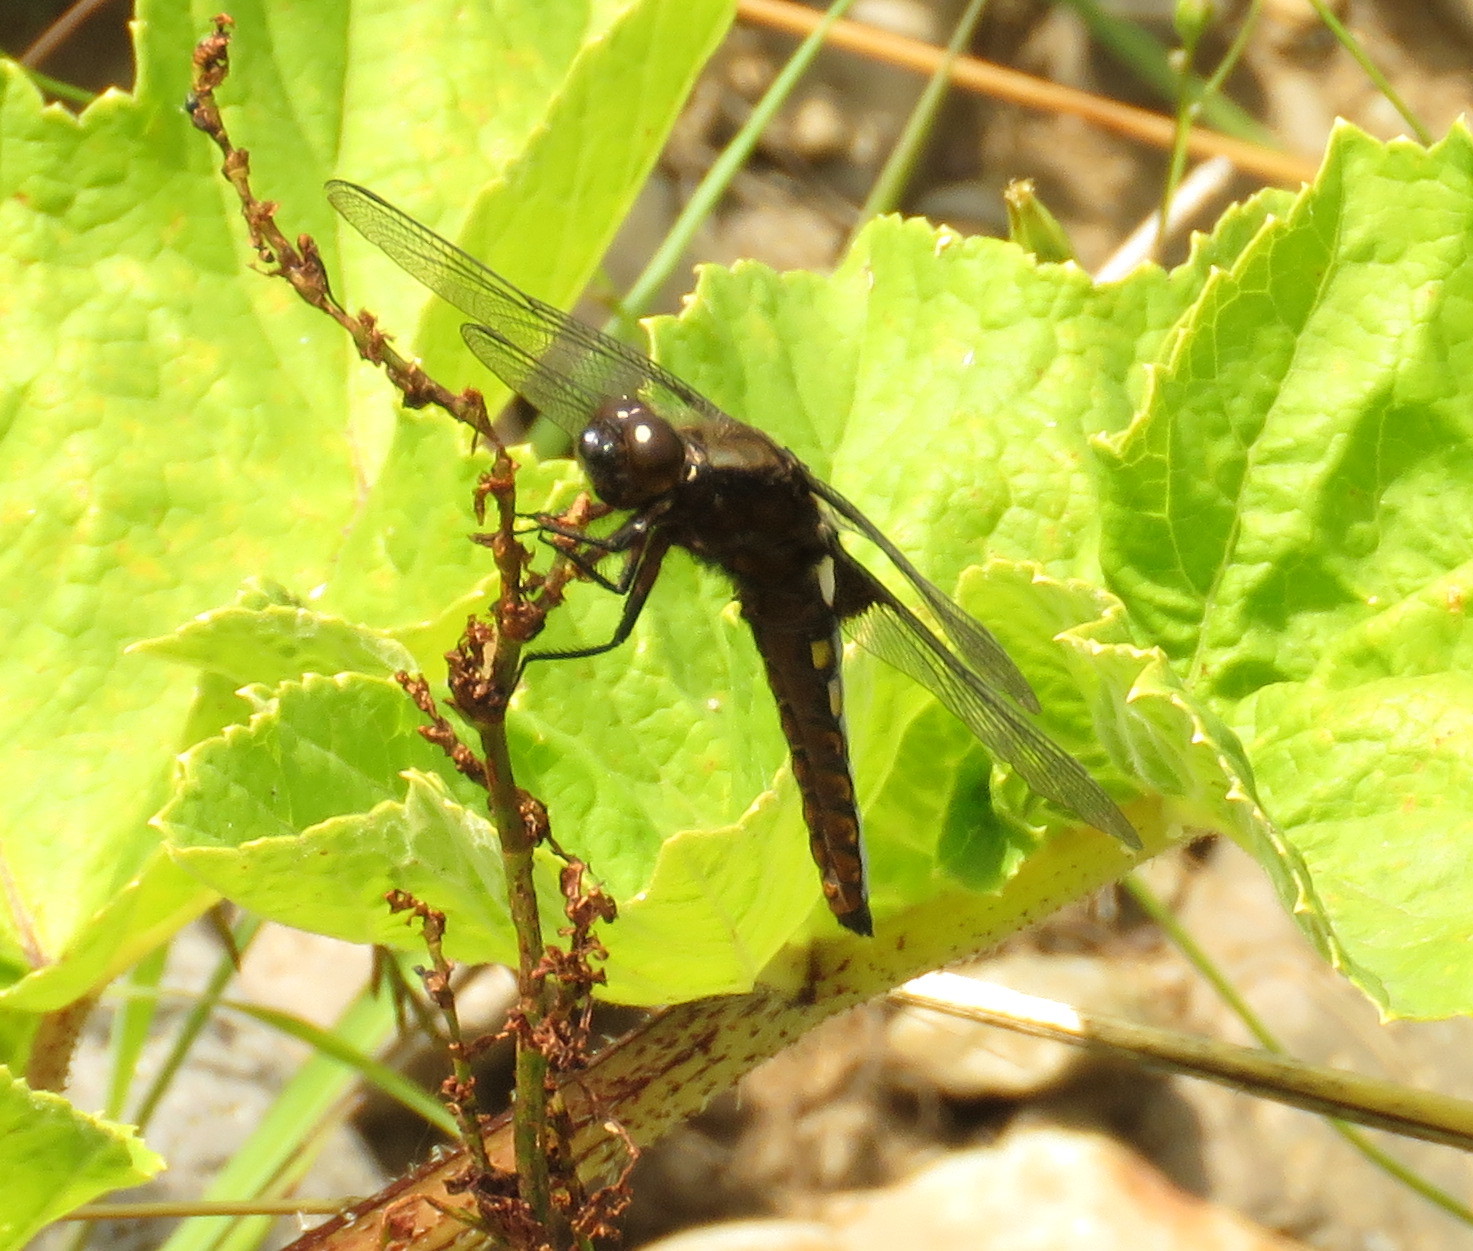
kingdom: Animalia
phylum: Arthropoda
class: Insecta
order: Odonata
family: Libellulidae
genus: Libellula
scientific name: Libellula depressa
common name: Broad-bodied chaser
